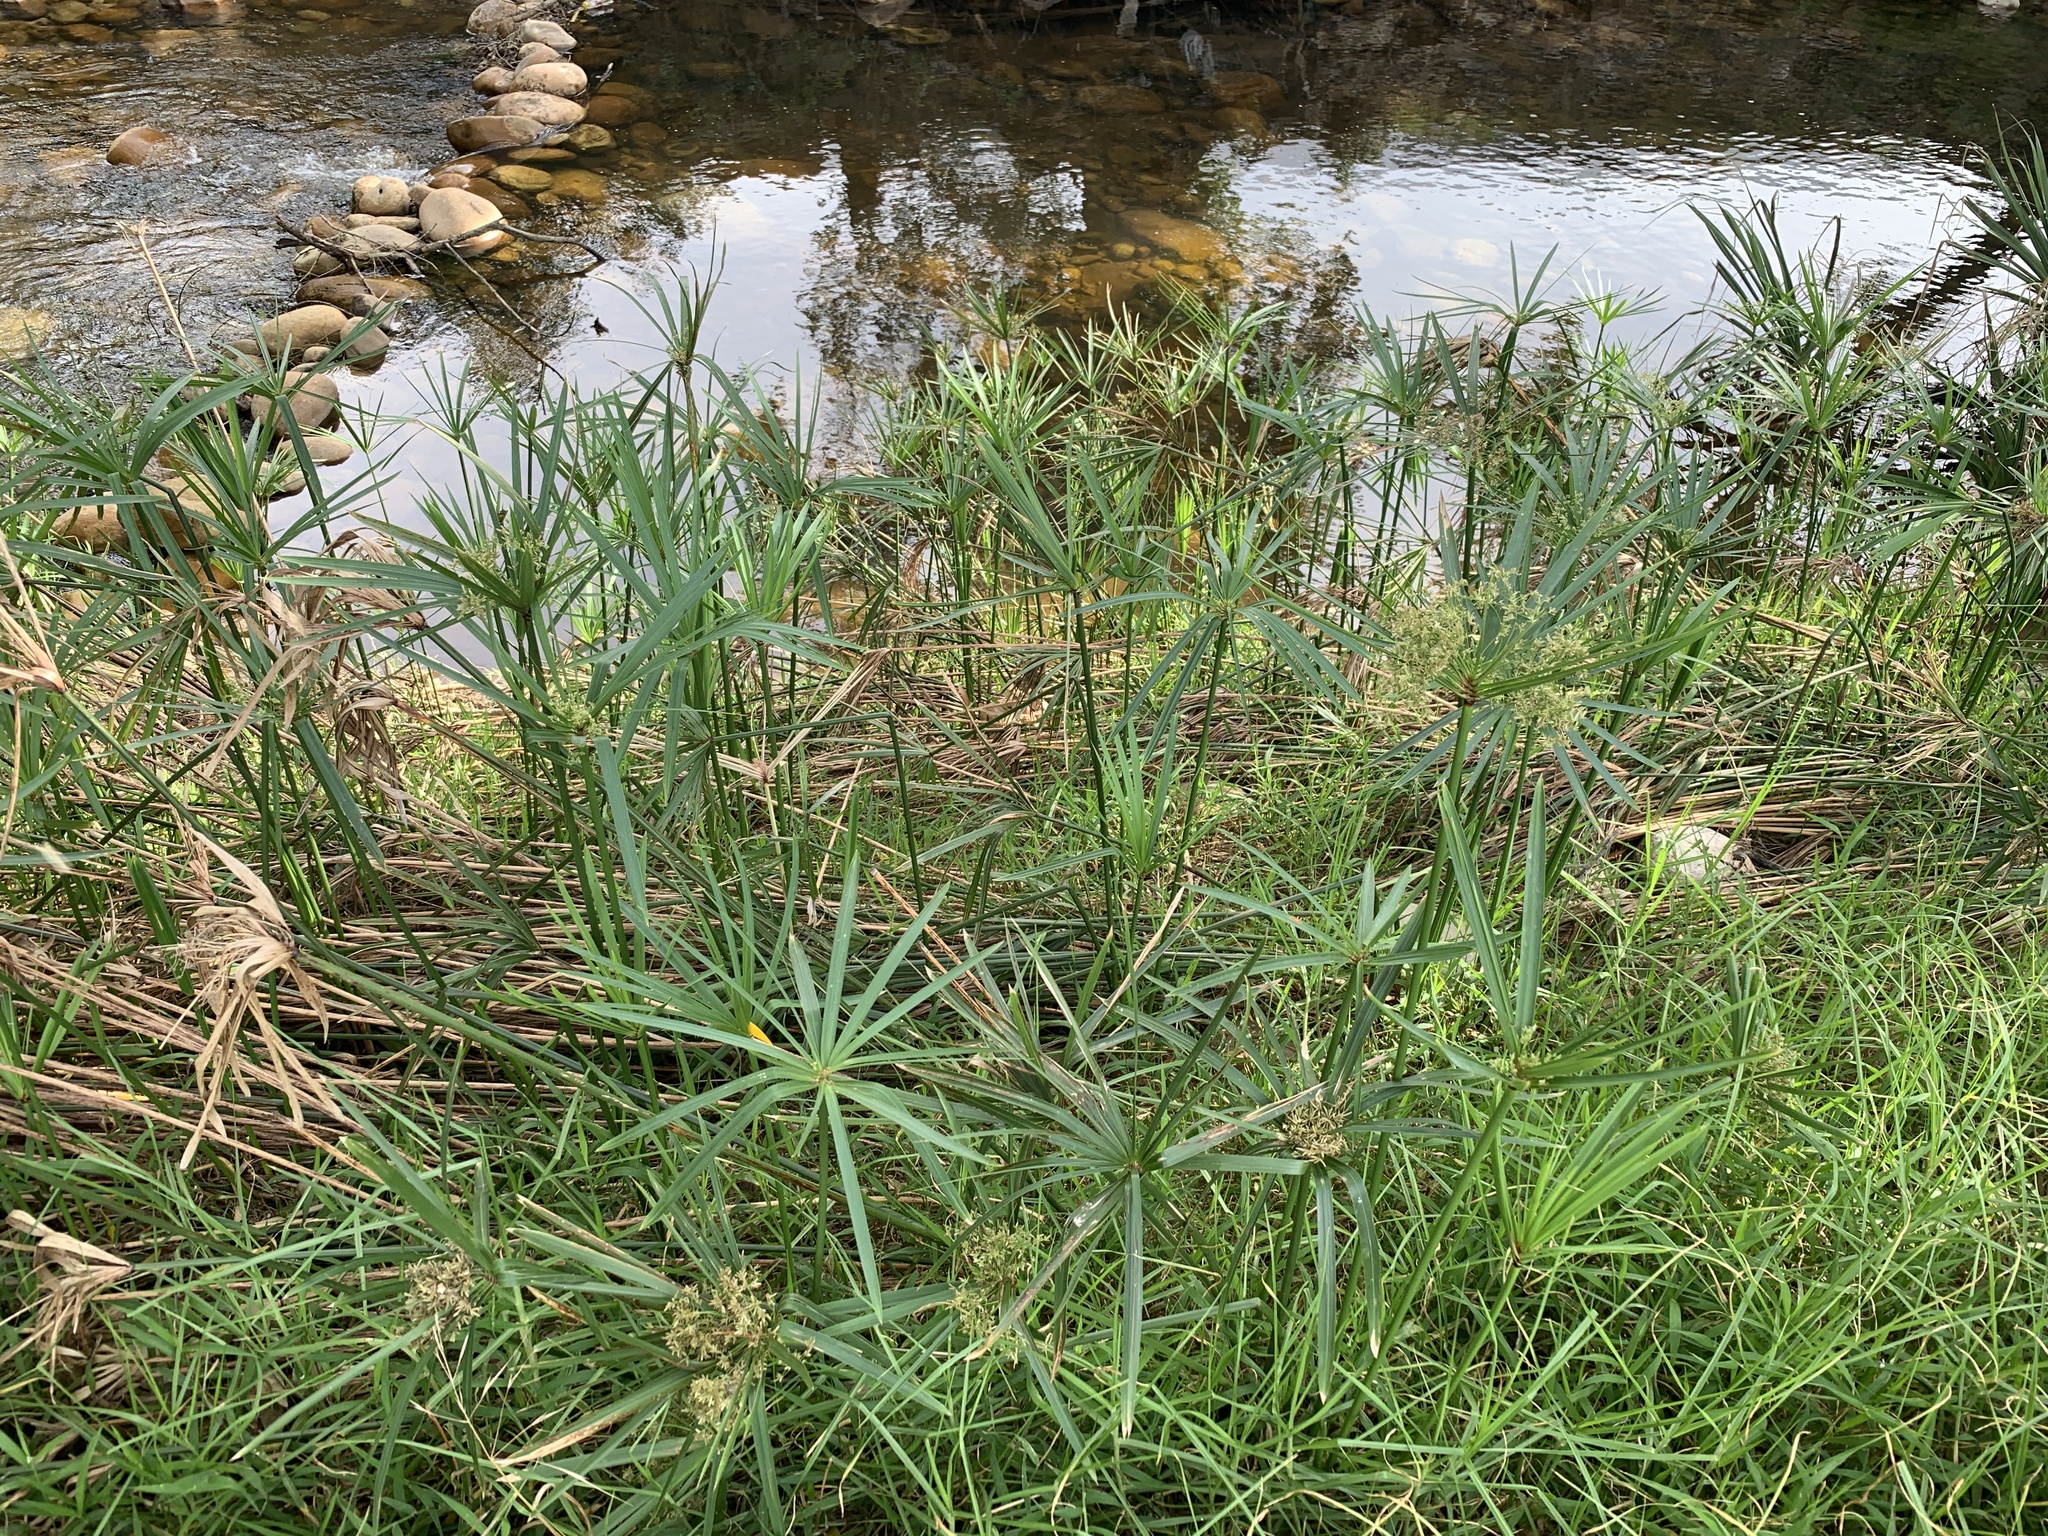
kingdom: Plantae
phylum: Tracheophyta
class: Liliopsida
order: Poales
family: Cyperaceae
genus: Cyperus
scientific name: Cyperus textilis
